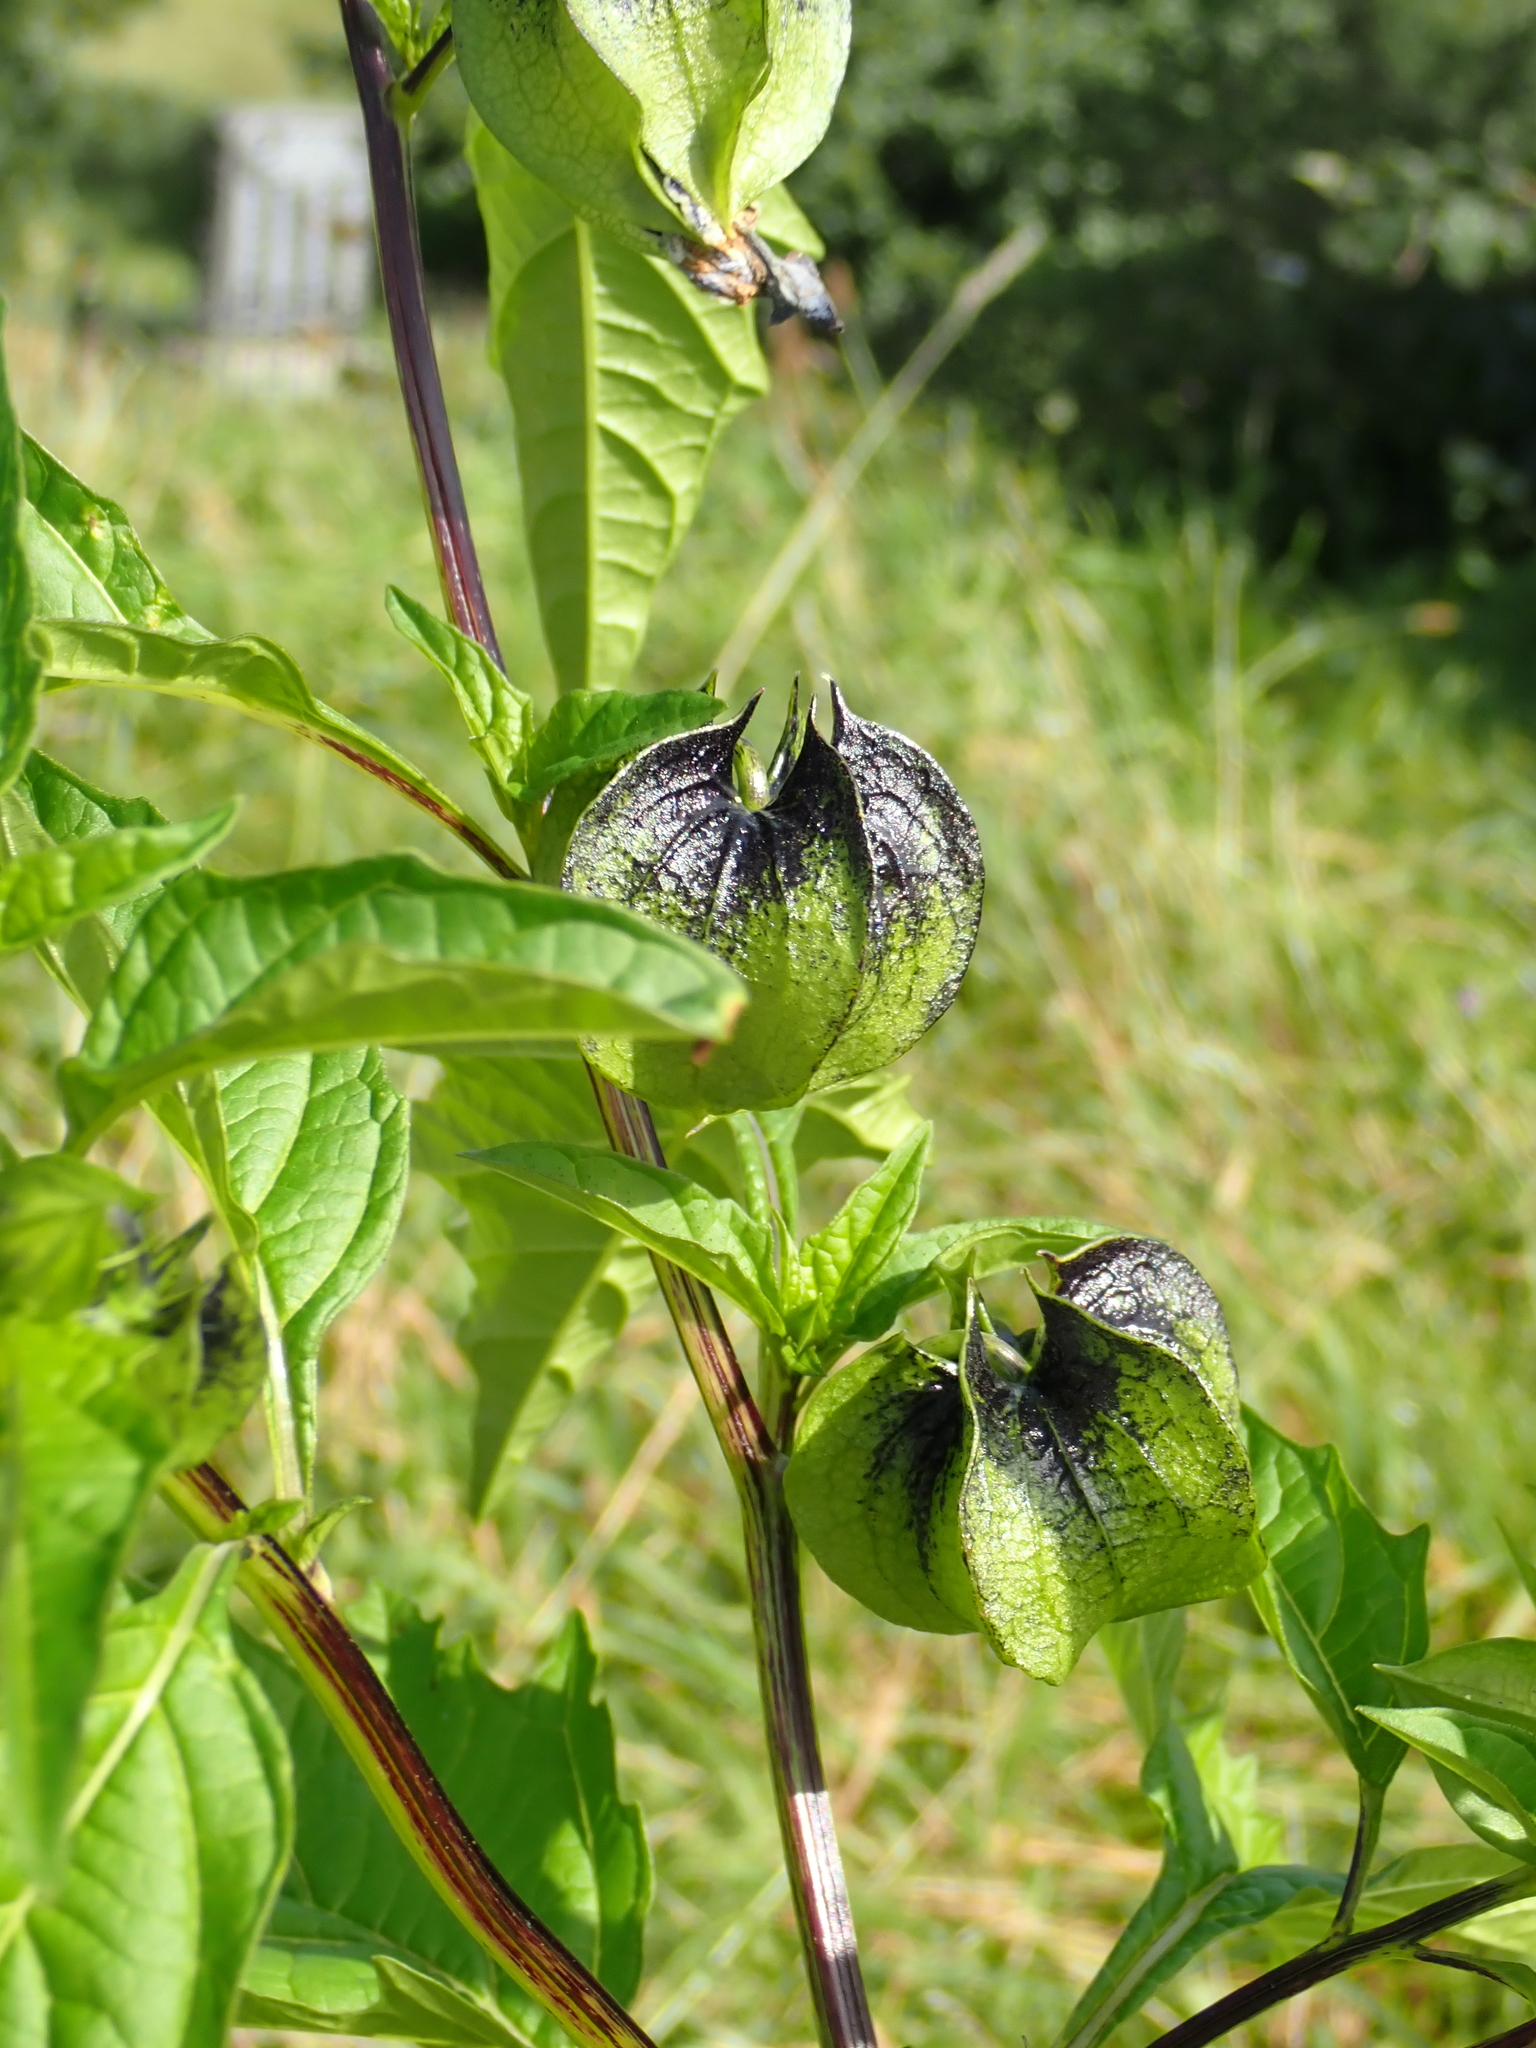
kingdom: Plantae
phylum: Tracheophyta
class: Magnoliopsida
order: Solanales
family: Solanaceae
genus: Nicandra
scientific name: Nicandra physalodes
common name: Apple-of-peru
